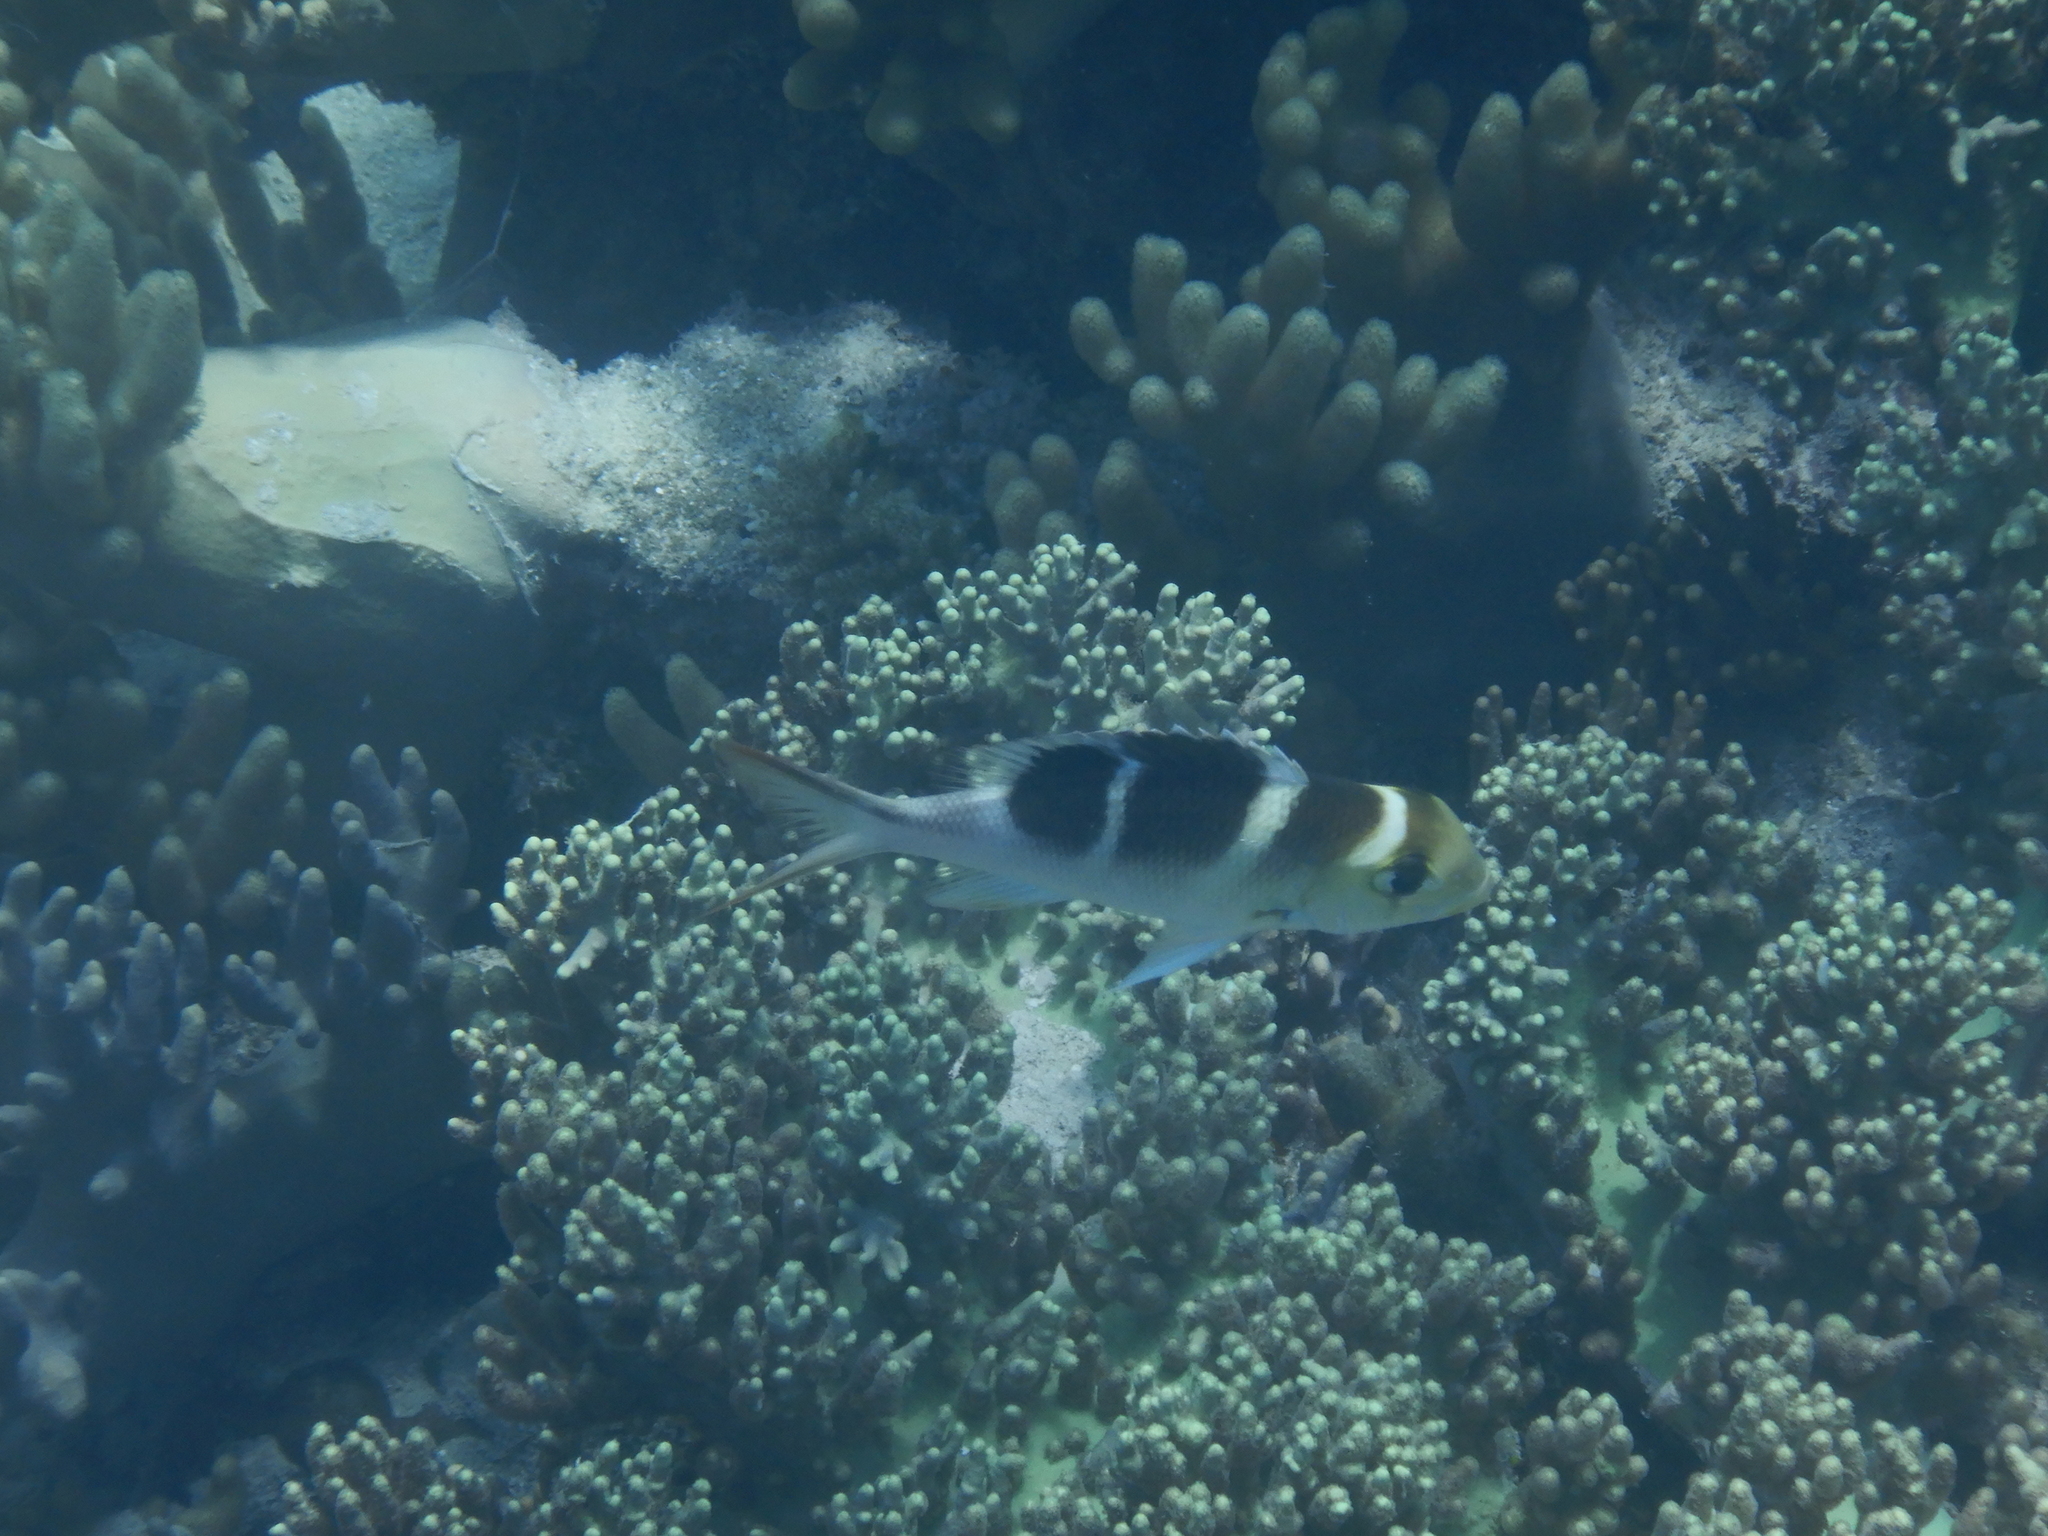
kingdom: Animalia
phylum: Chordata
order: Perciformes
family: Lethrinidae
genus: Monotaxis
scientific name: Monotaxis grandoculis
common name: Bigeye emperor
